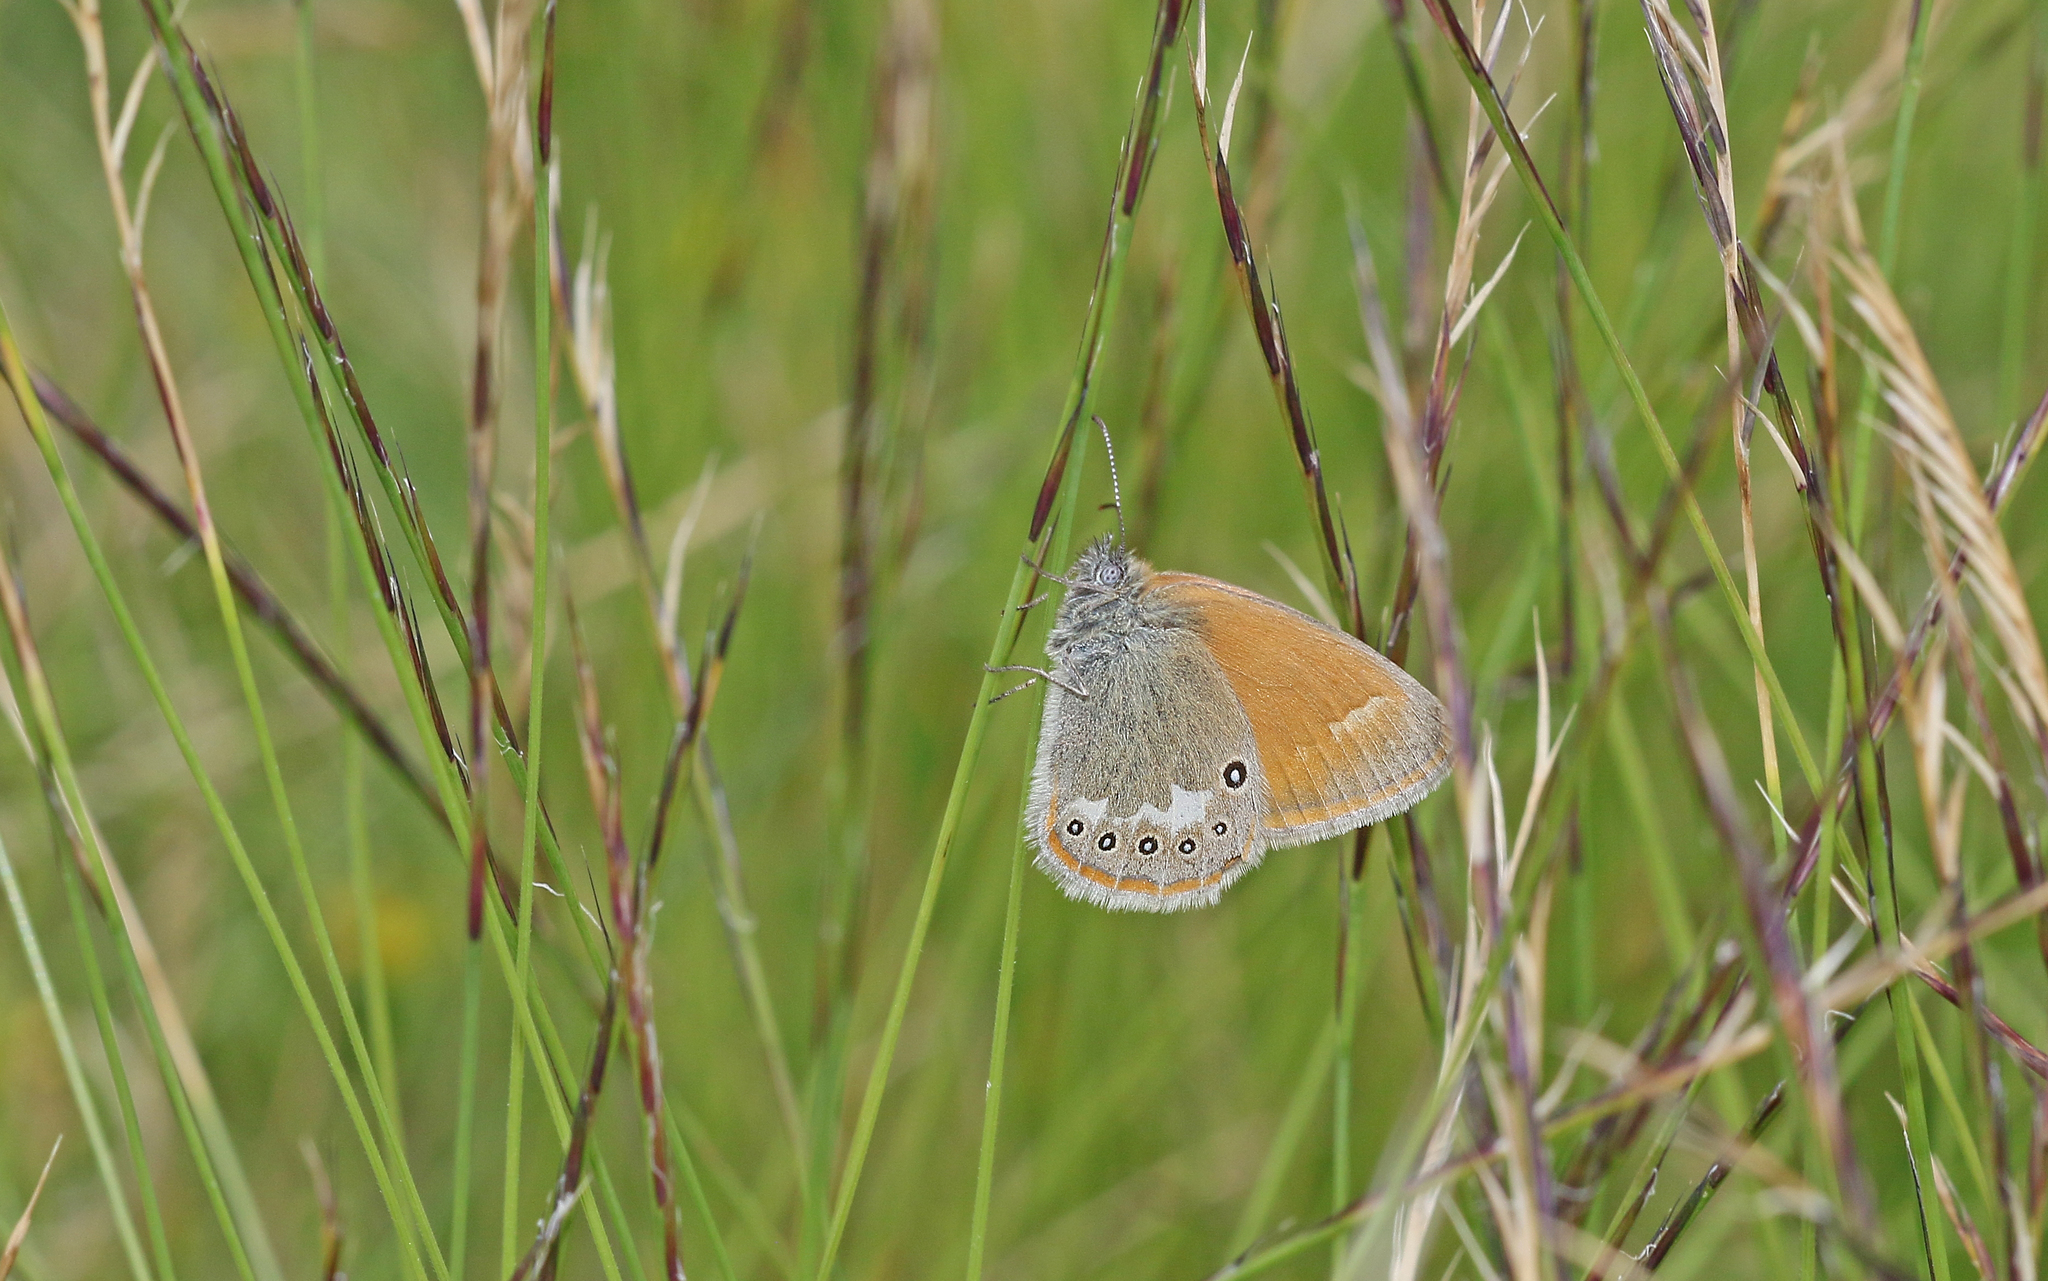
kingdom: Animalia
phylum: Arthropoda
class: Insecta
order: Lepidoptera
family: Nymphalidae
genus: Coenonympha
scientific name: Coenonympha iphis
